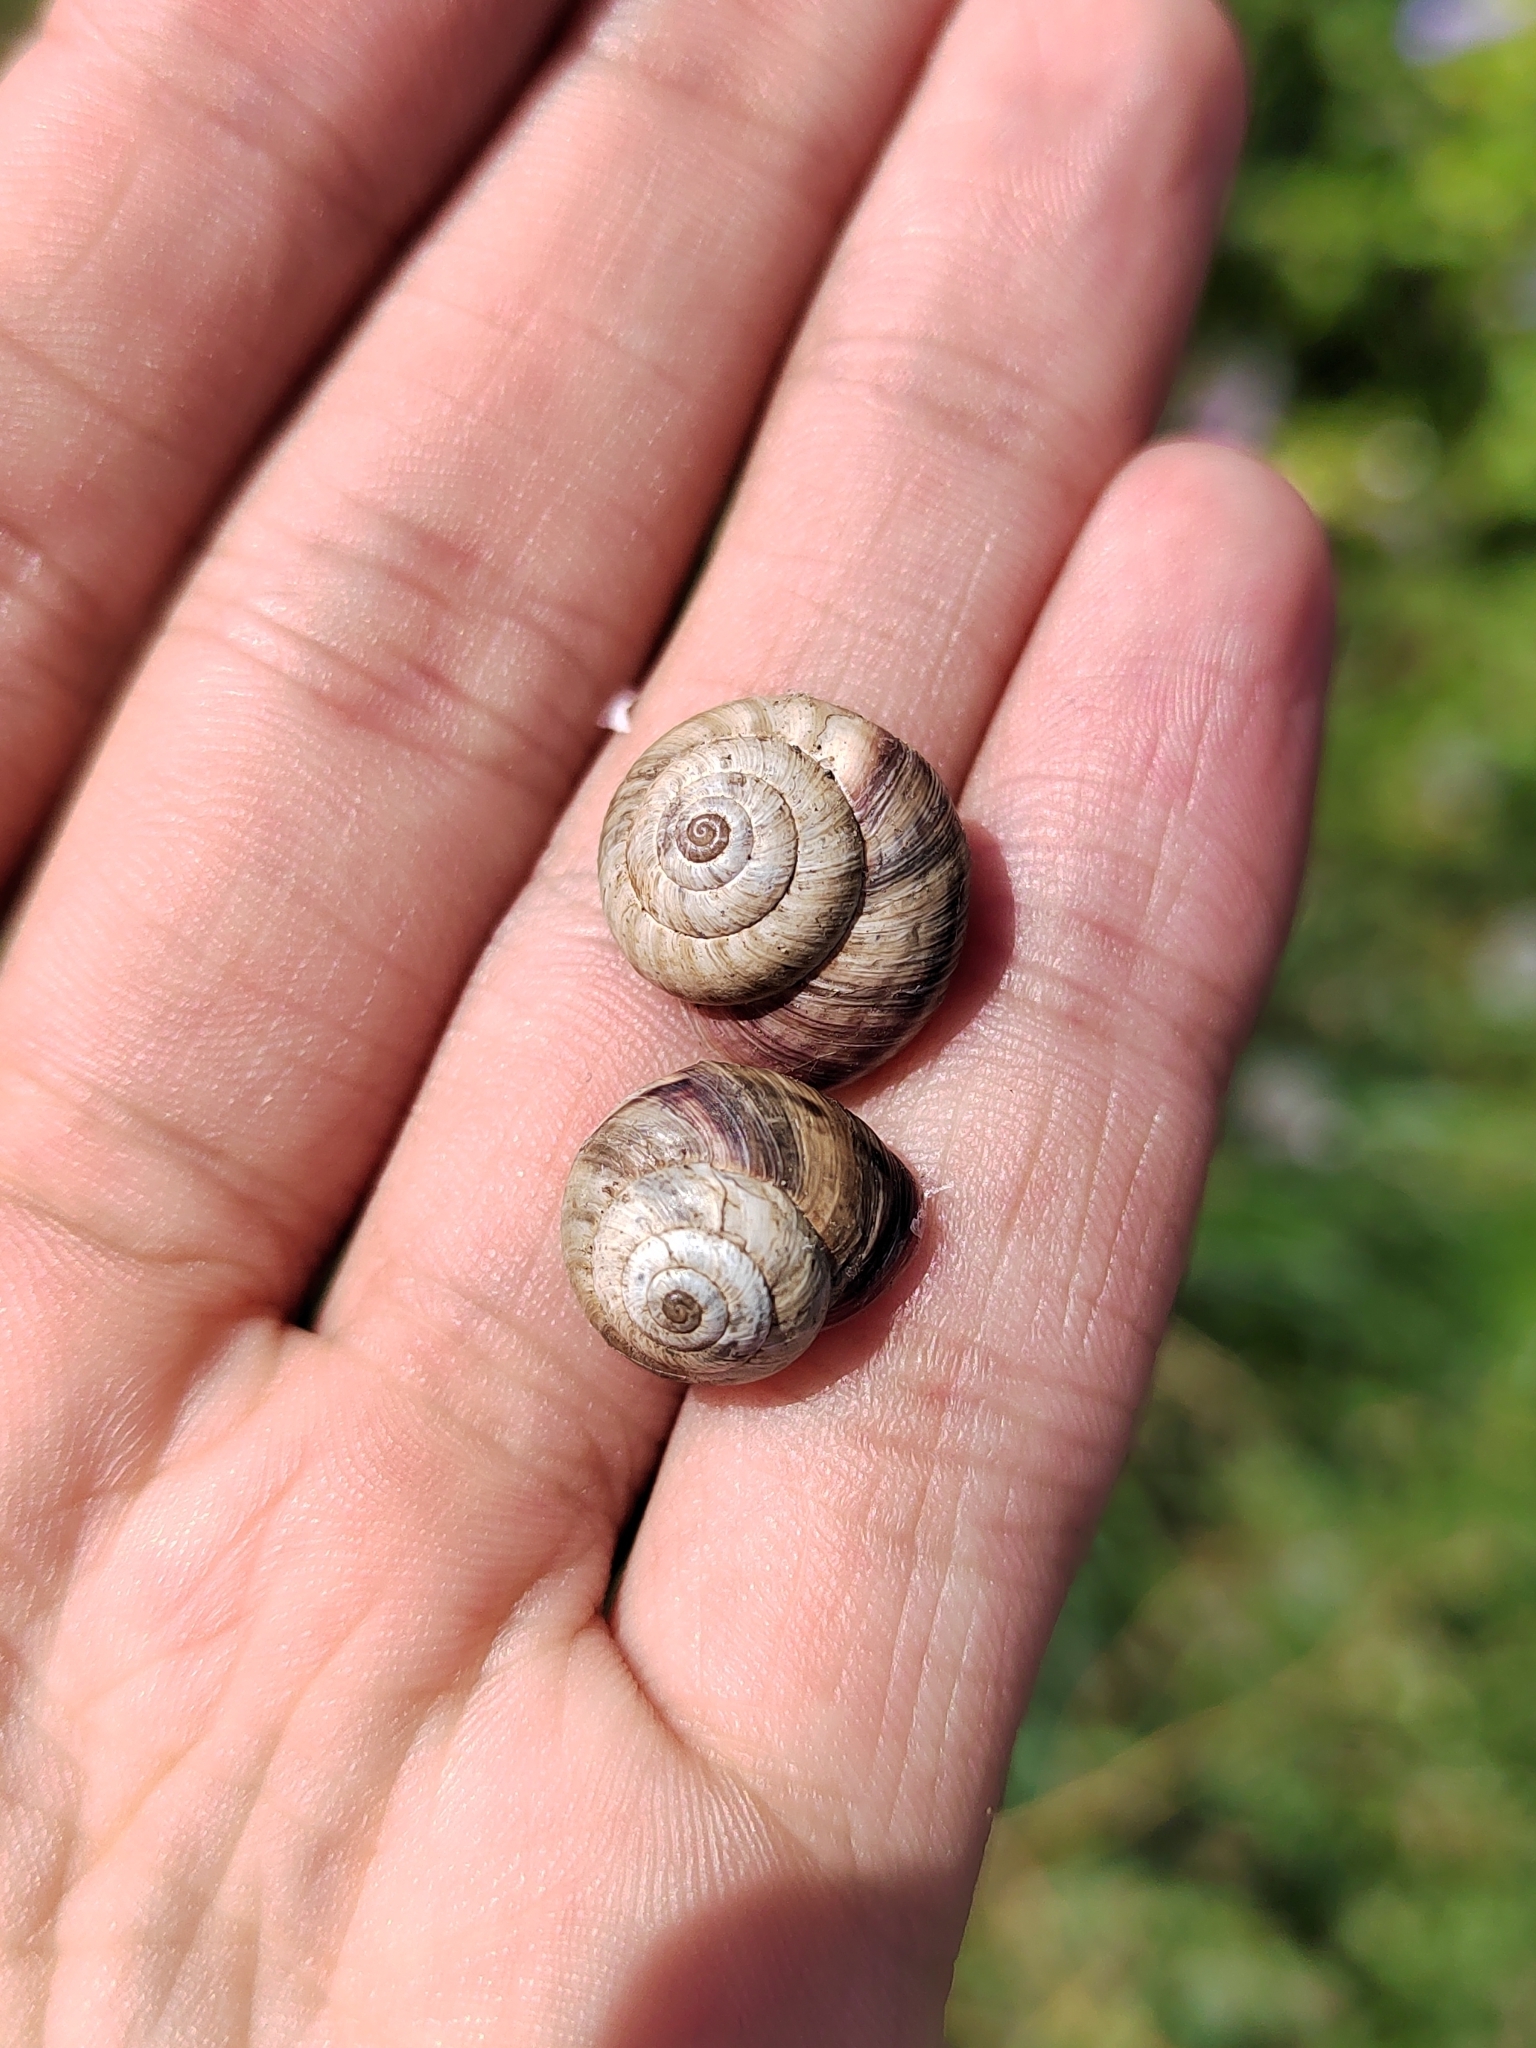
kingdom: Animalia
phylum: Mollusca
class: Gastropoda
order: Stylommatophora
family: Geomitridae
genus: Cernuella
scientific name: Cernuella virgata
